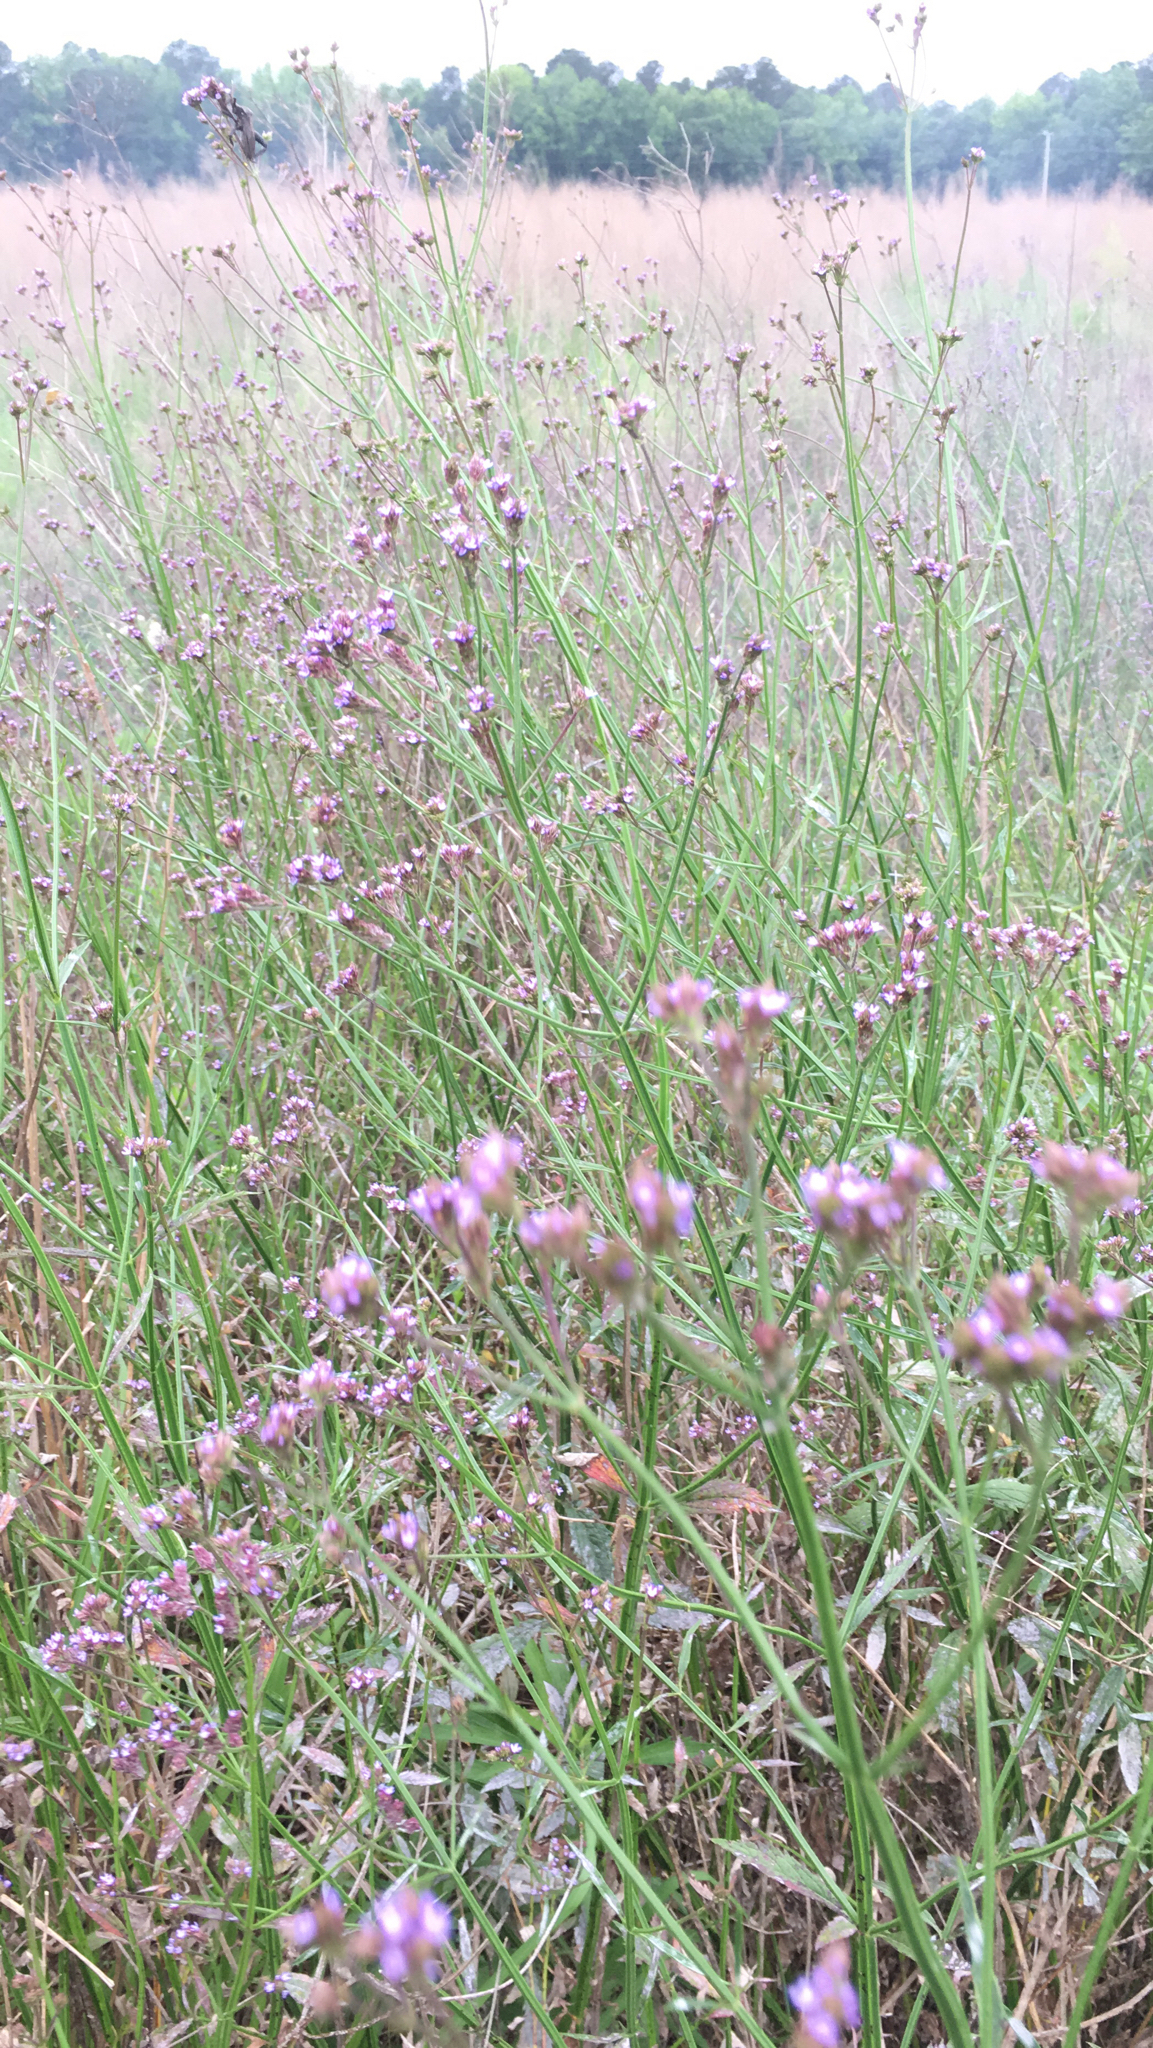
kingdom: Plantae
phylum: Tracheophyta
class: Magnoliopsida
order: Lamiales
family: Verbenaceae
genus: Verbena
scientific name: Verbena brasiliensis
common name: Brazilian vervain
